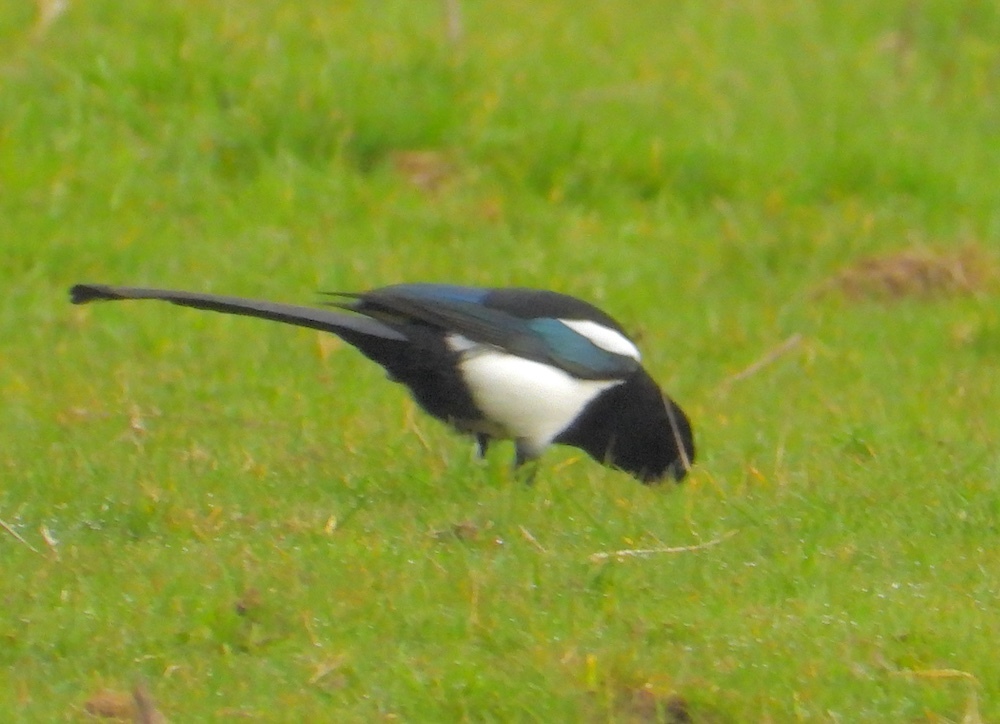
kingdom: Animalia
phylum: Chordata
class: Aves
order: Passeriformes
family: Corvidae
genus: Pica
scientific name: Pica pica
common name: Eurasian magpie
